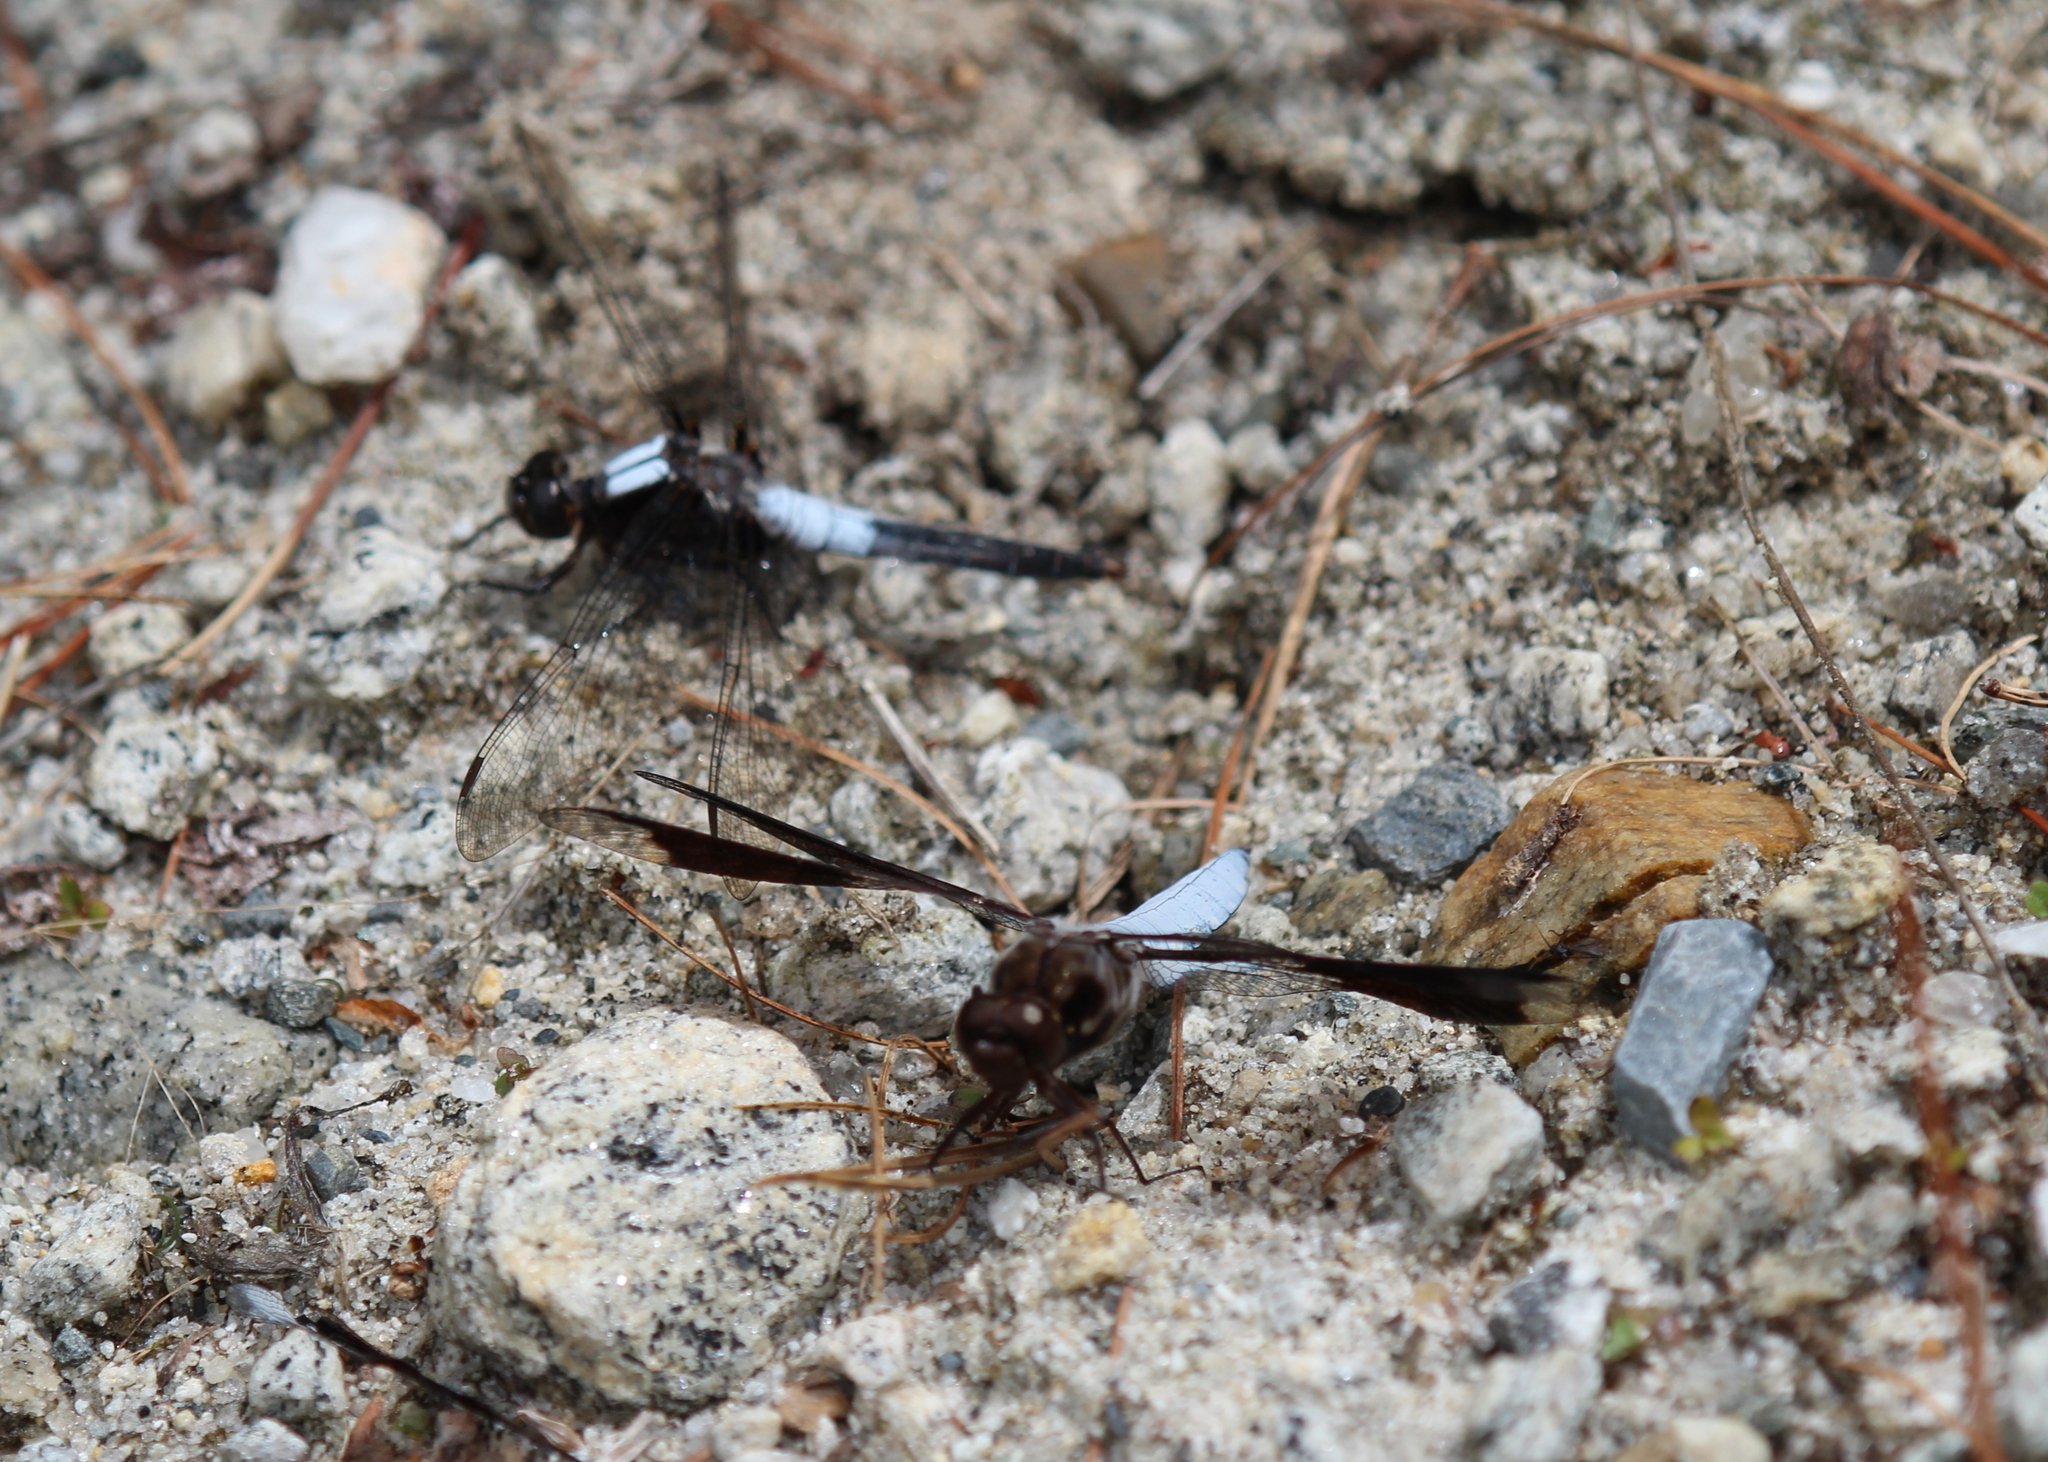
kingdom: Animalia
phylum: Arthropoda
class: Insecta
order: Odonata
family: Libellulidae
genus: Plathemis
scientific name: Plathemis lydia
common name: Common whitetail
